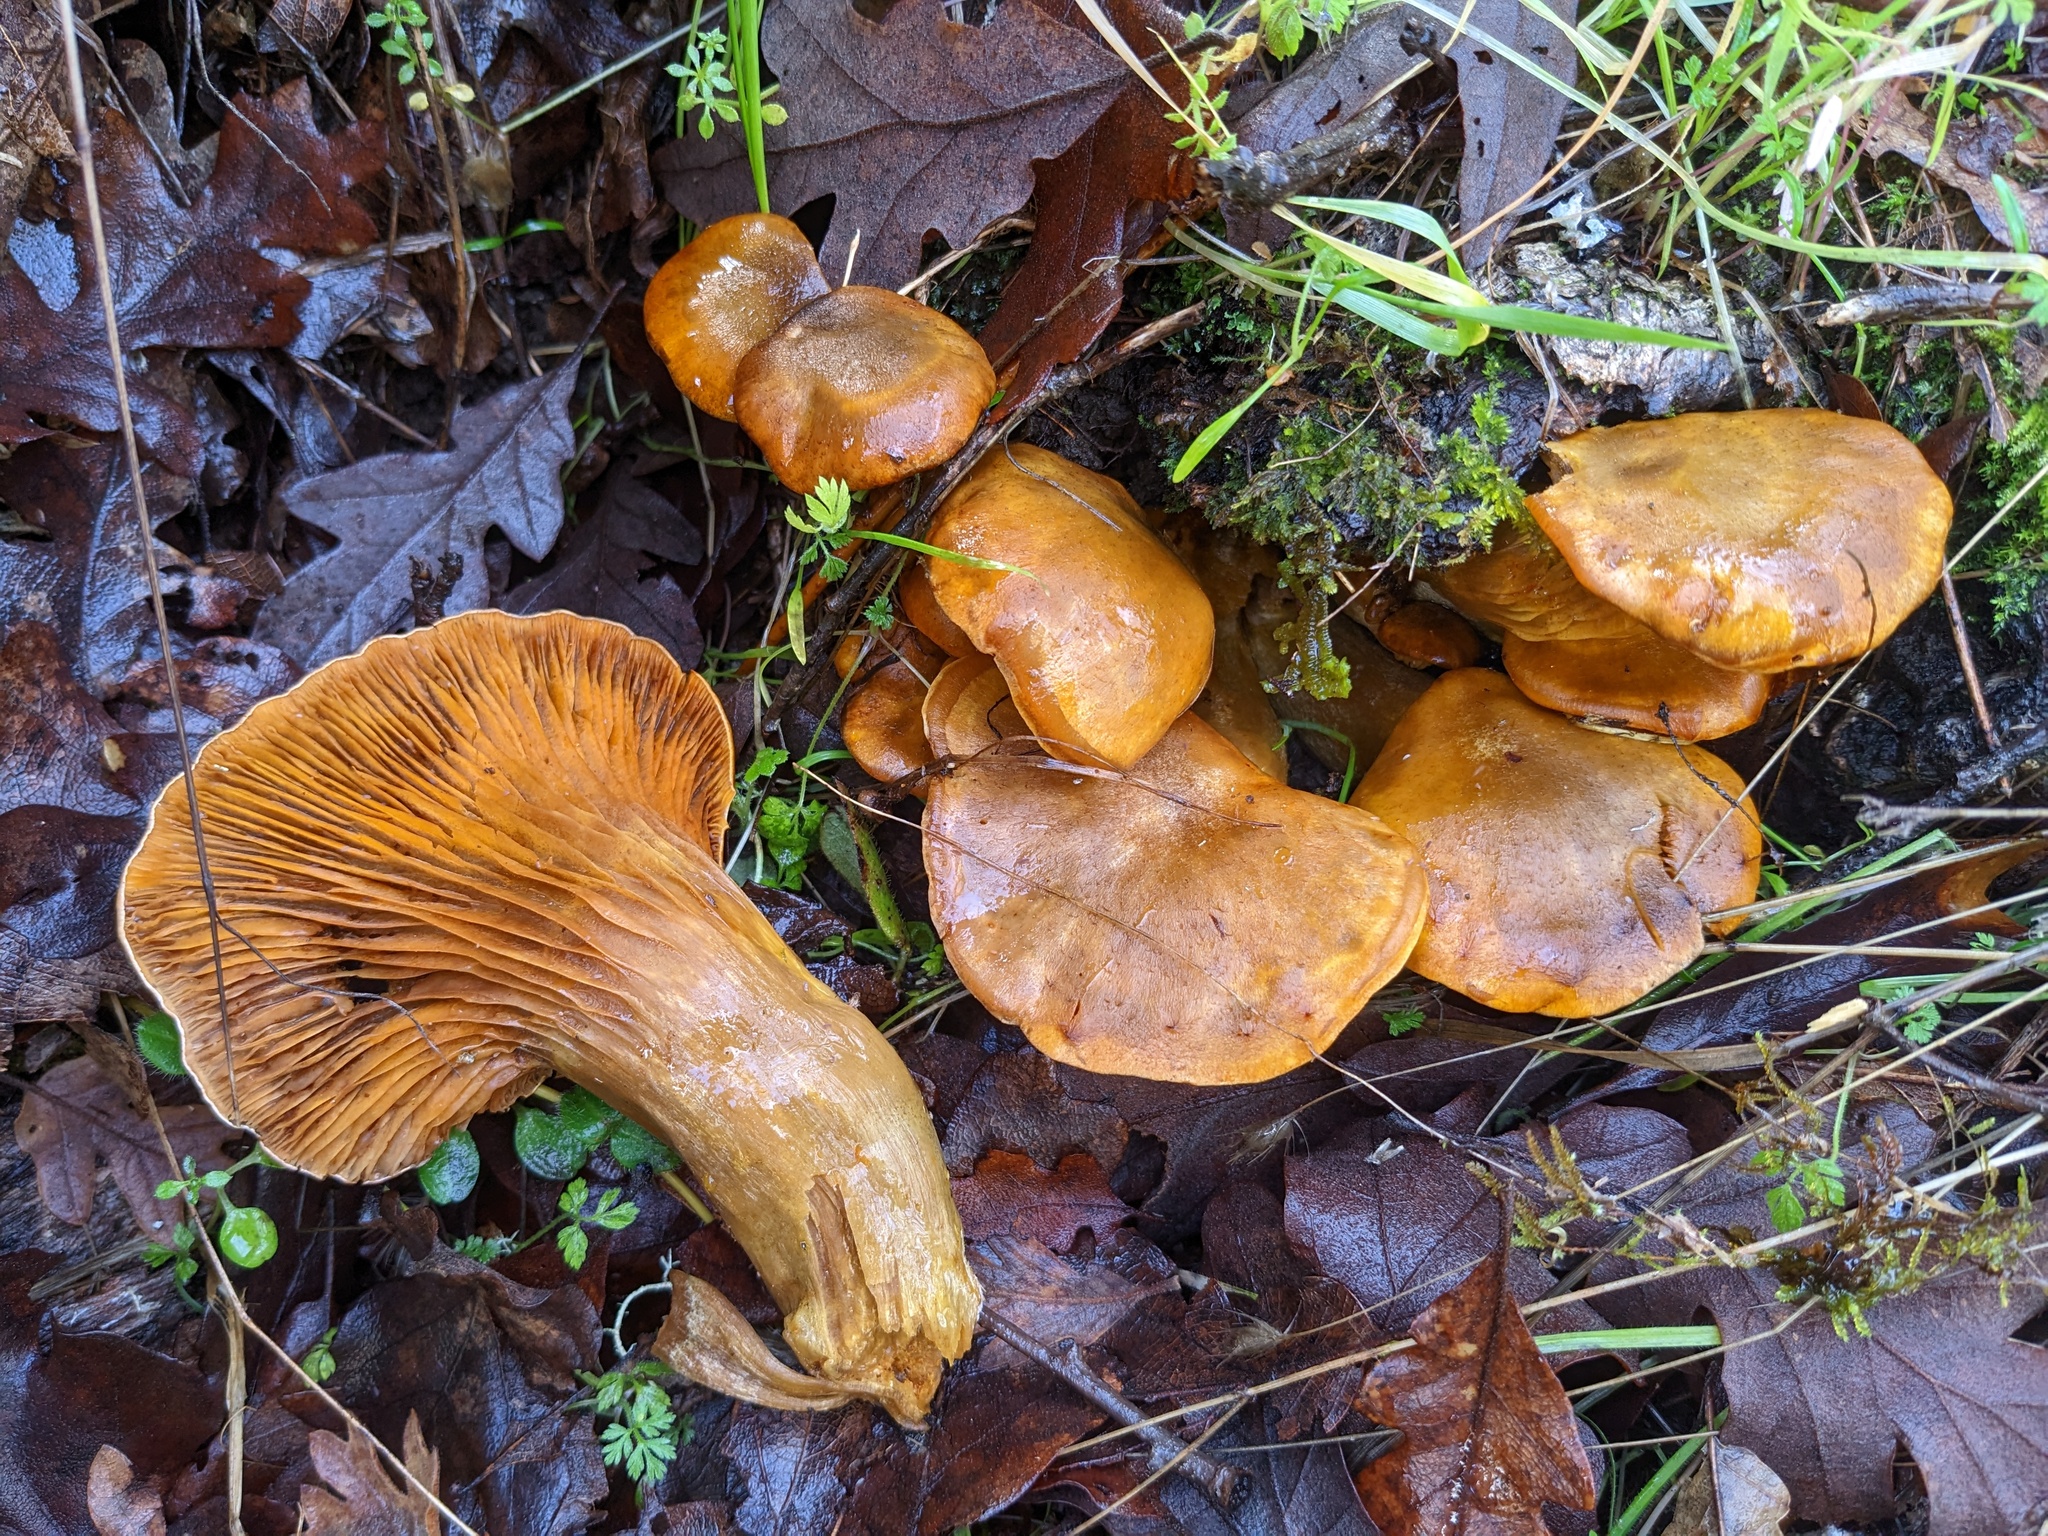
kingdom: Fungi
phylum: Basidiomycota
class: Agaricomycetes
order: Agaricales
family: Omphalotaceae
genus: Omphalotus
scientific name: Omphalotus olivascens
